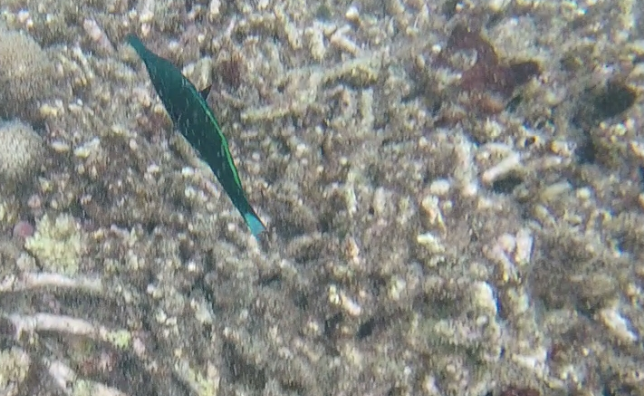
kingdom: Animalia
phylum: Chordata
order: Perciformes
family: Labridae
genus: Gomphosus
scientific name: Gomphosus caeruleus
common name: Bird wrasse
